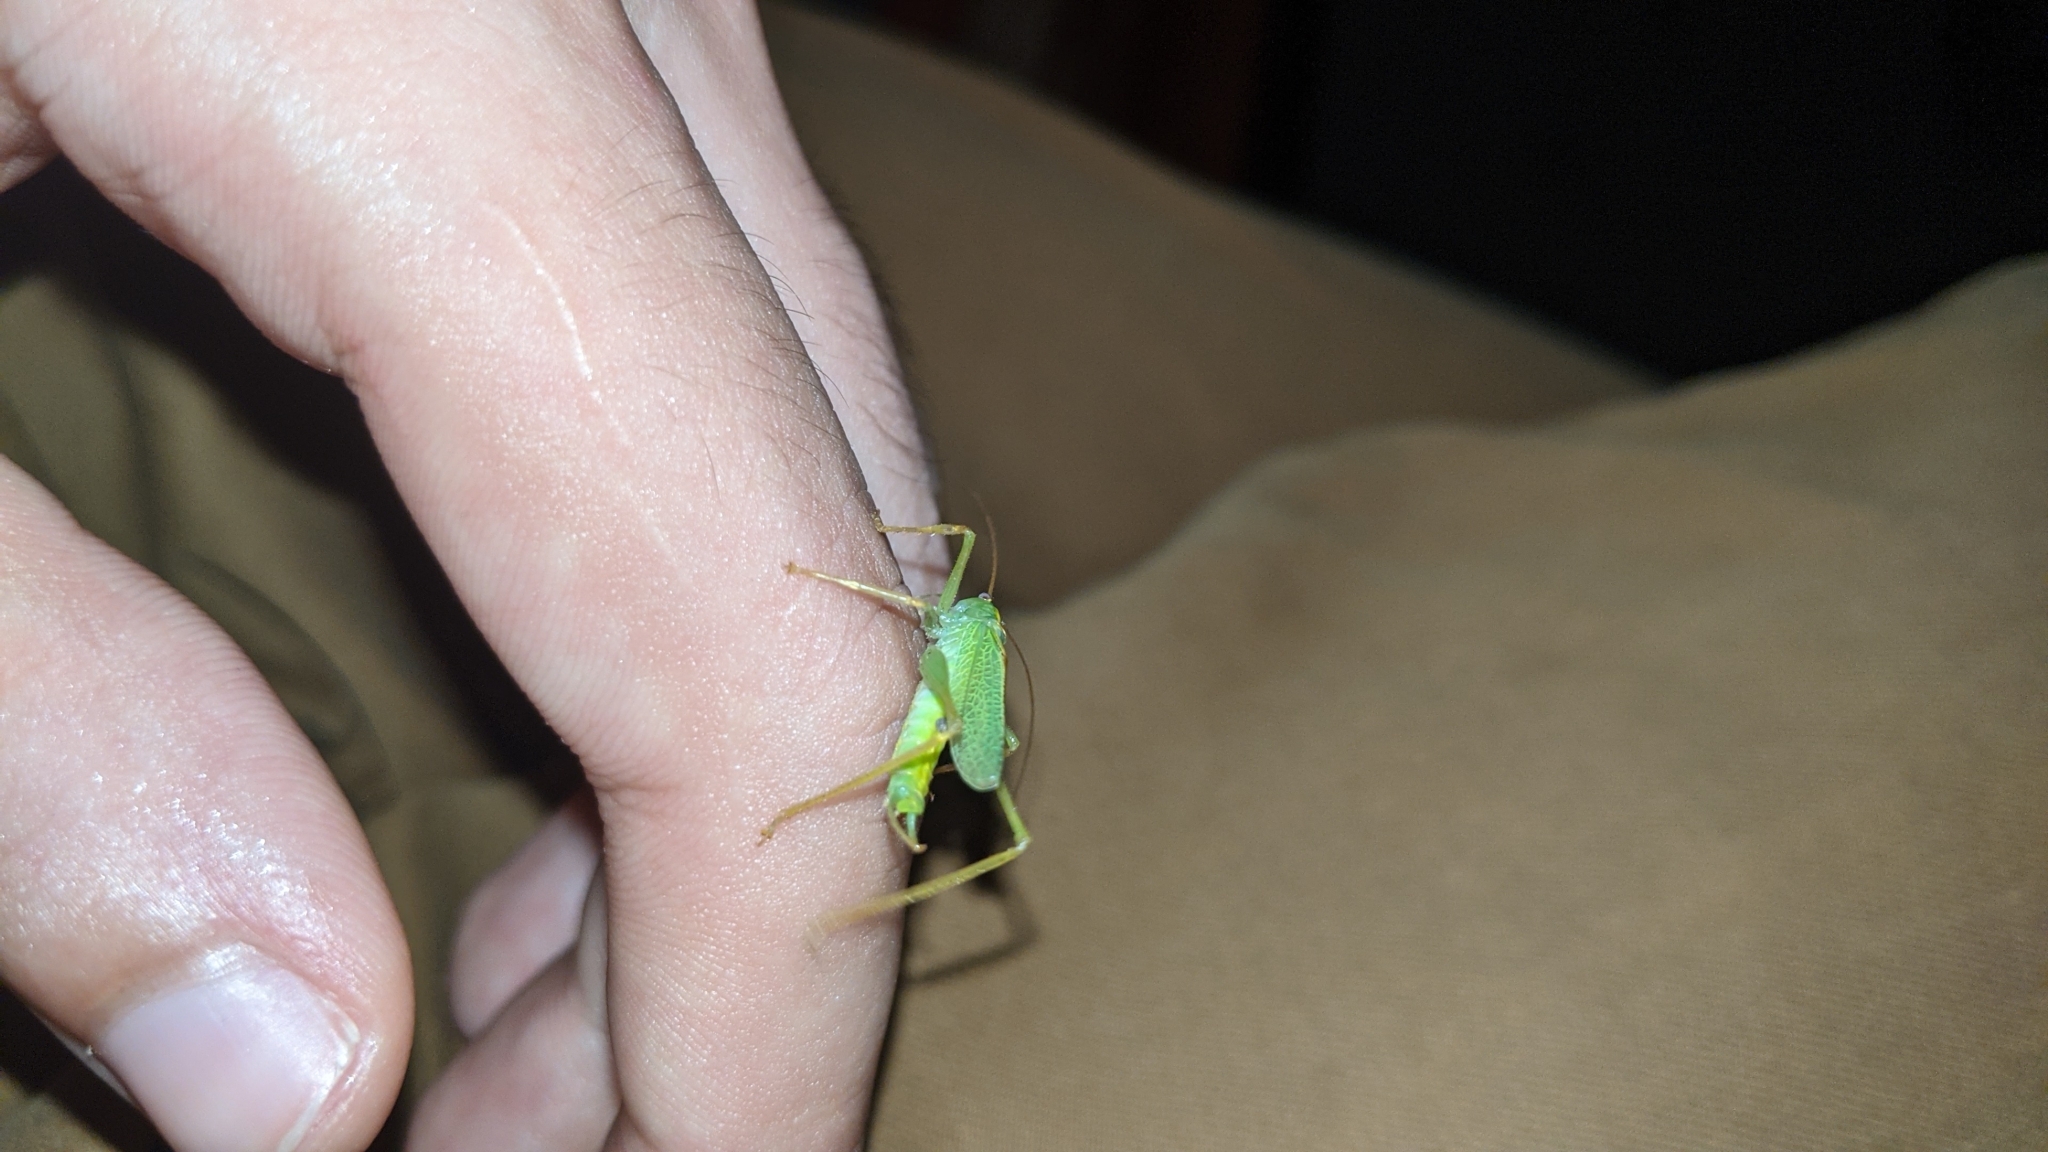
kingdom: Animalia
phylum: Arthropoda
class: Insecta
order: Orthoptera
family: Tettigoniidae
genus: Meconema
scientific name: Meconema thalassinum
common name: Oak bush-cricket
